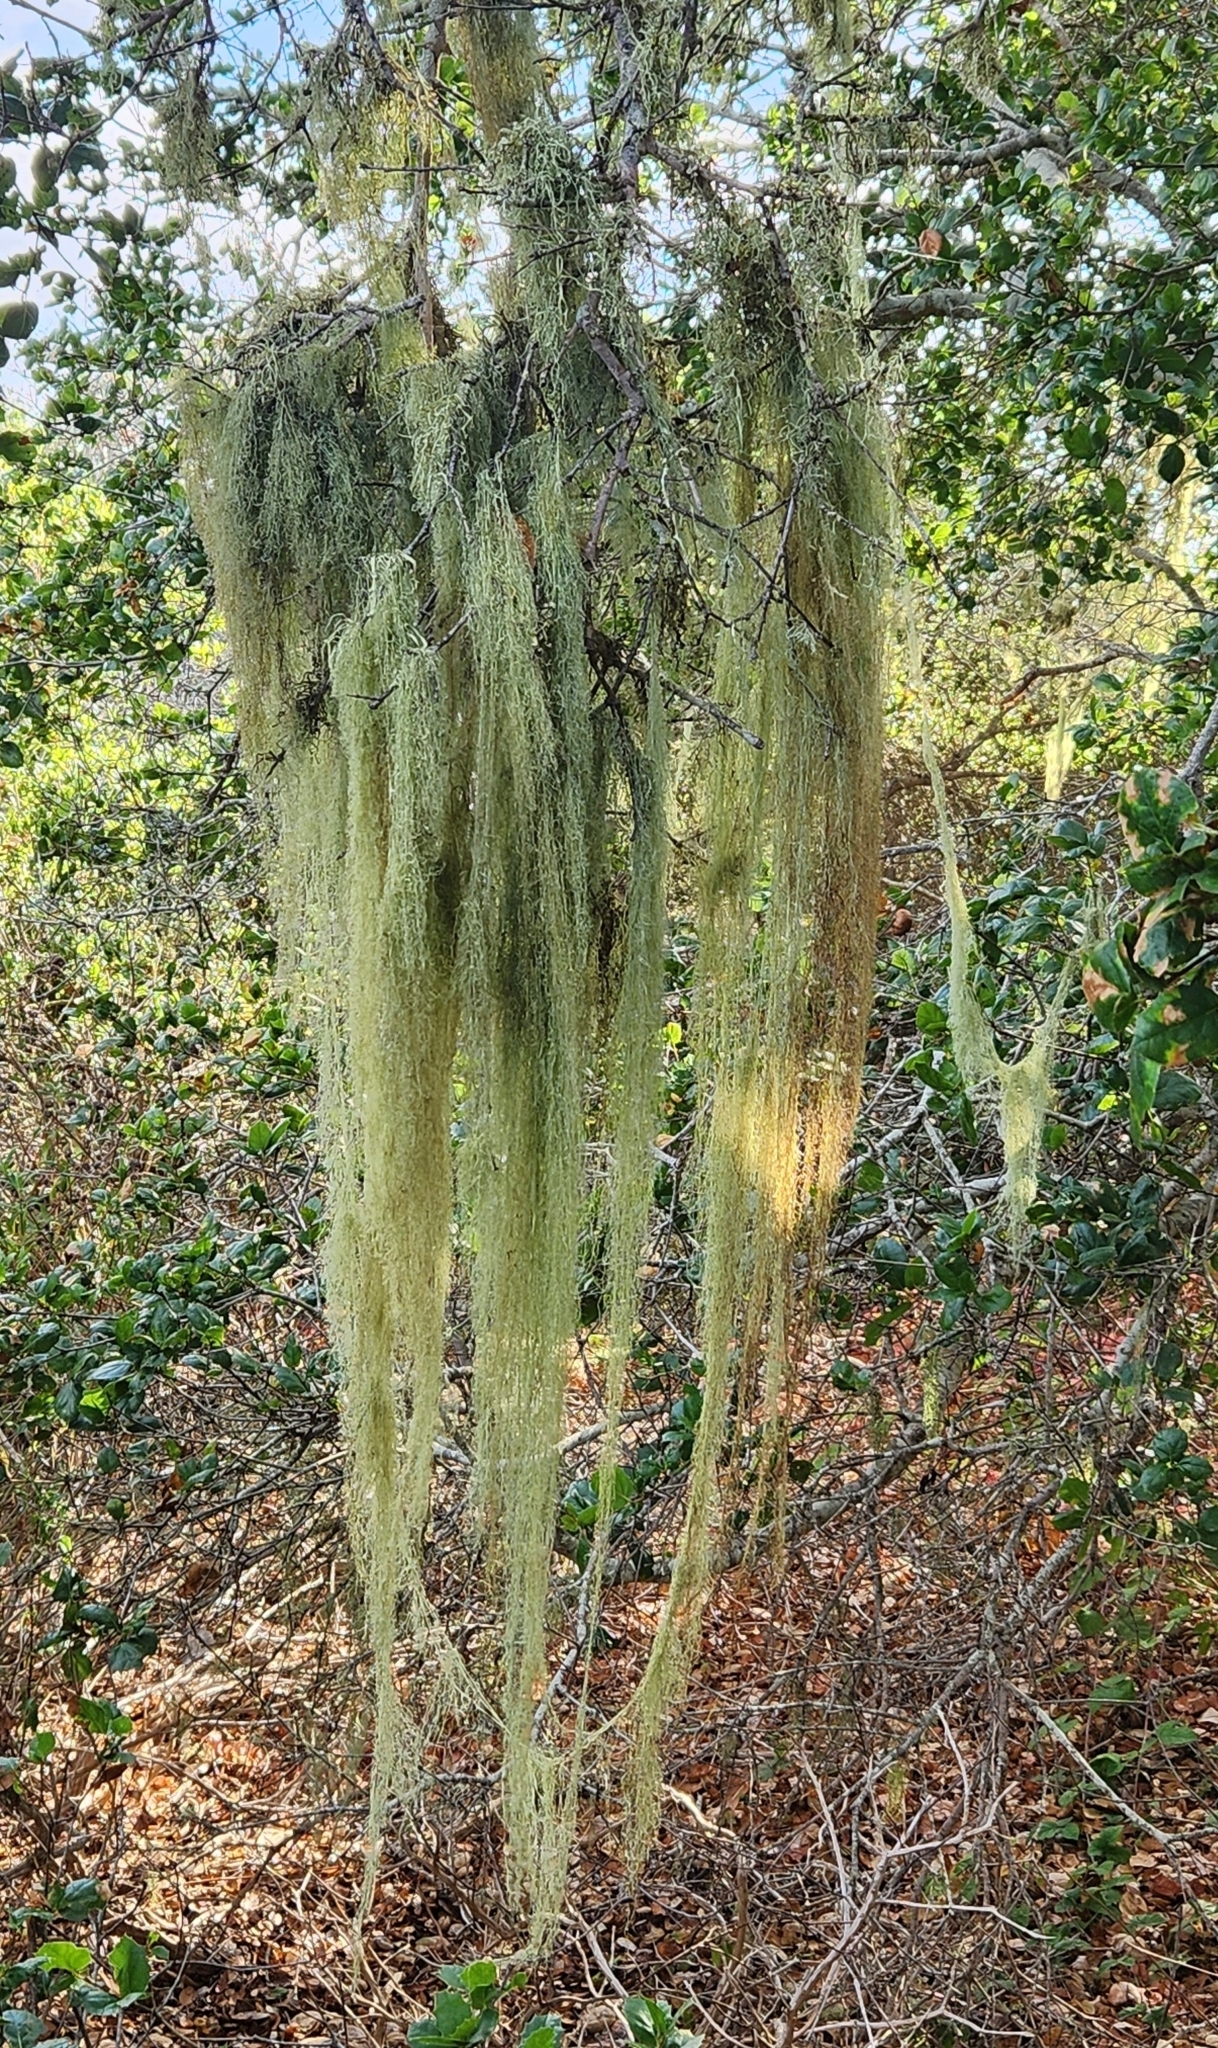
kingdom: Fungi
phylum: Ascomycota
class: Lecanoromycetes
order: Lecanorales
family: Ramalinaceae
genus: Ramalina
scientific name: Ramalina menziesii
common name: Lace lichen
